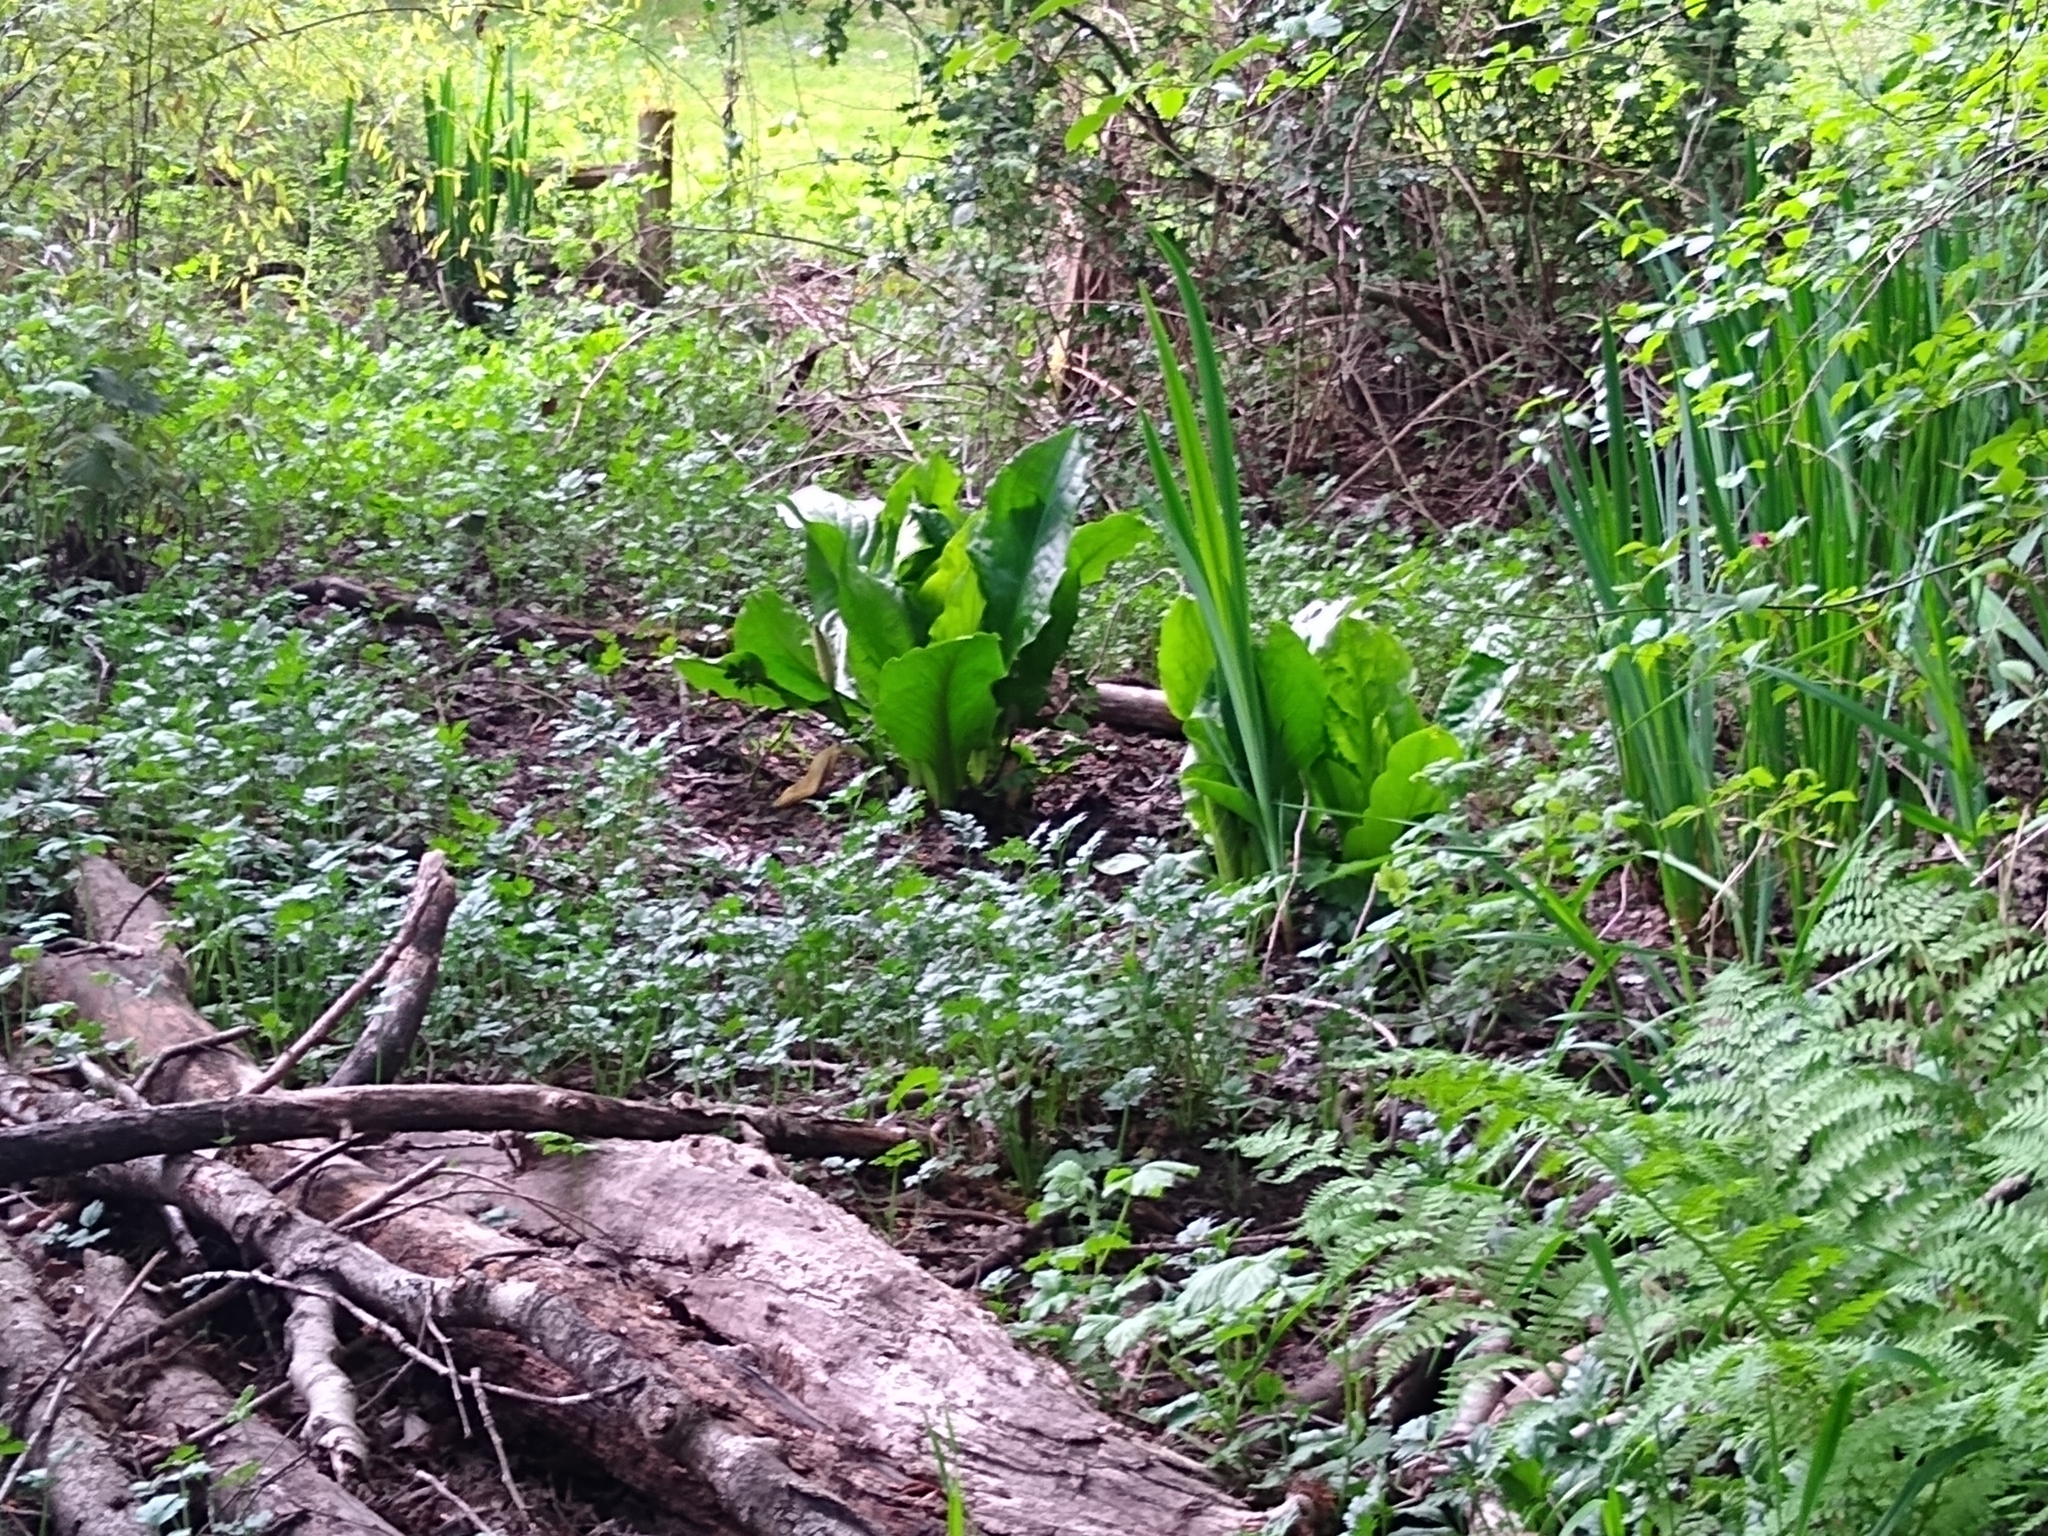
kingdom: Plantae
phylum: Tracheophyta
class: Liliopsida
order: Alismatales
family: Araceae
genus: Lysichiton
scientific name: Lysichiton americanus
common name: American skunk cabbage
